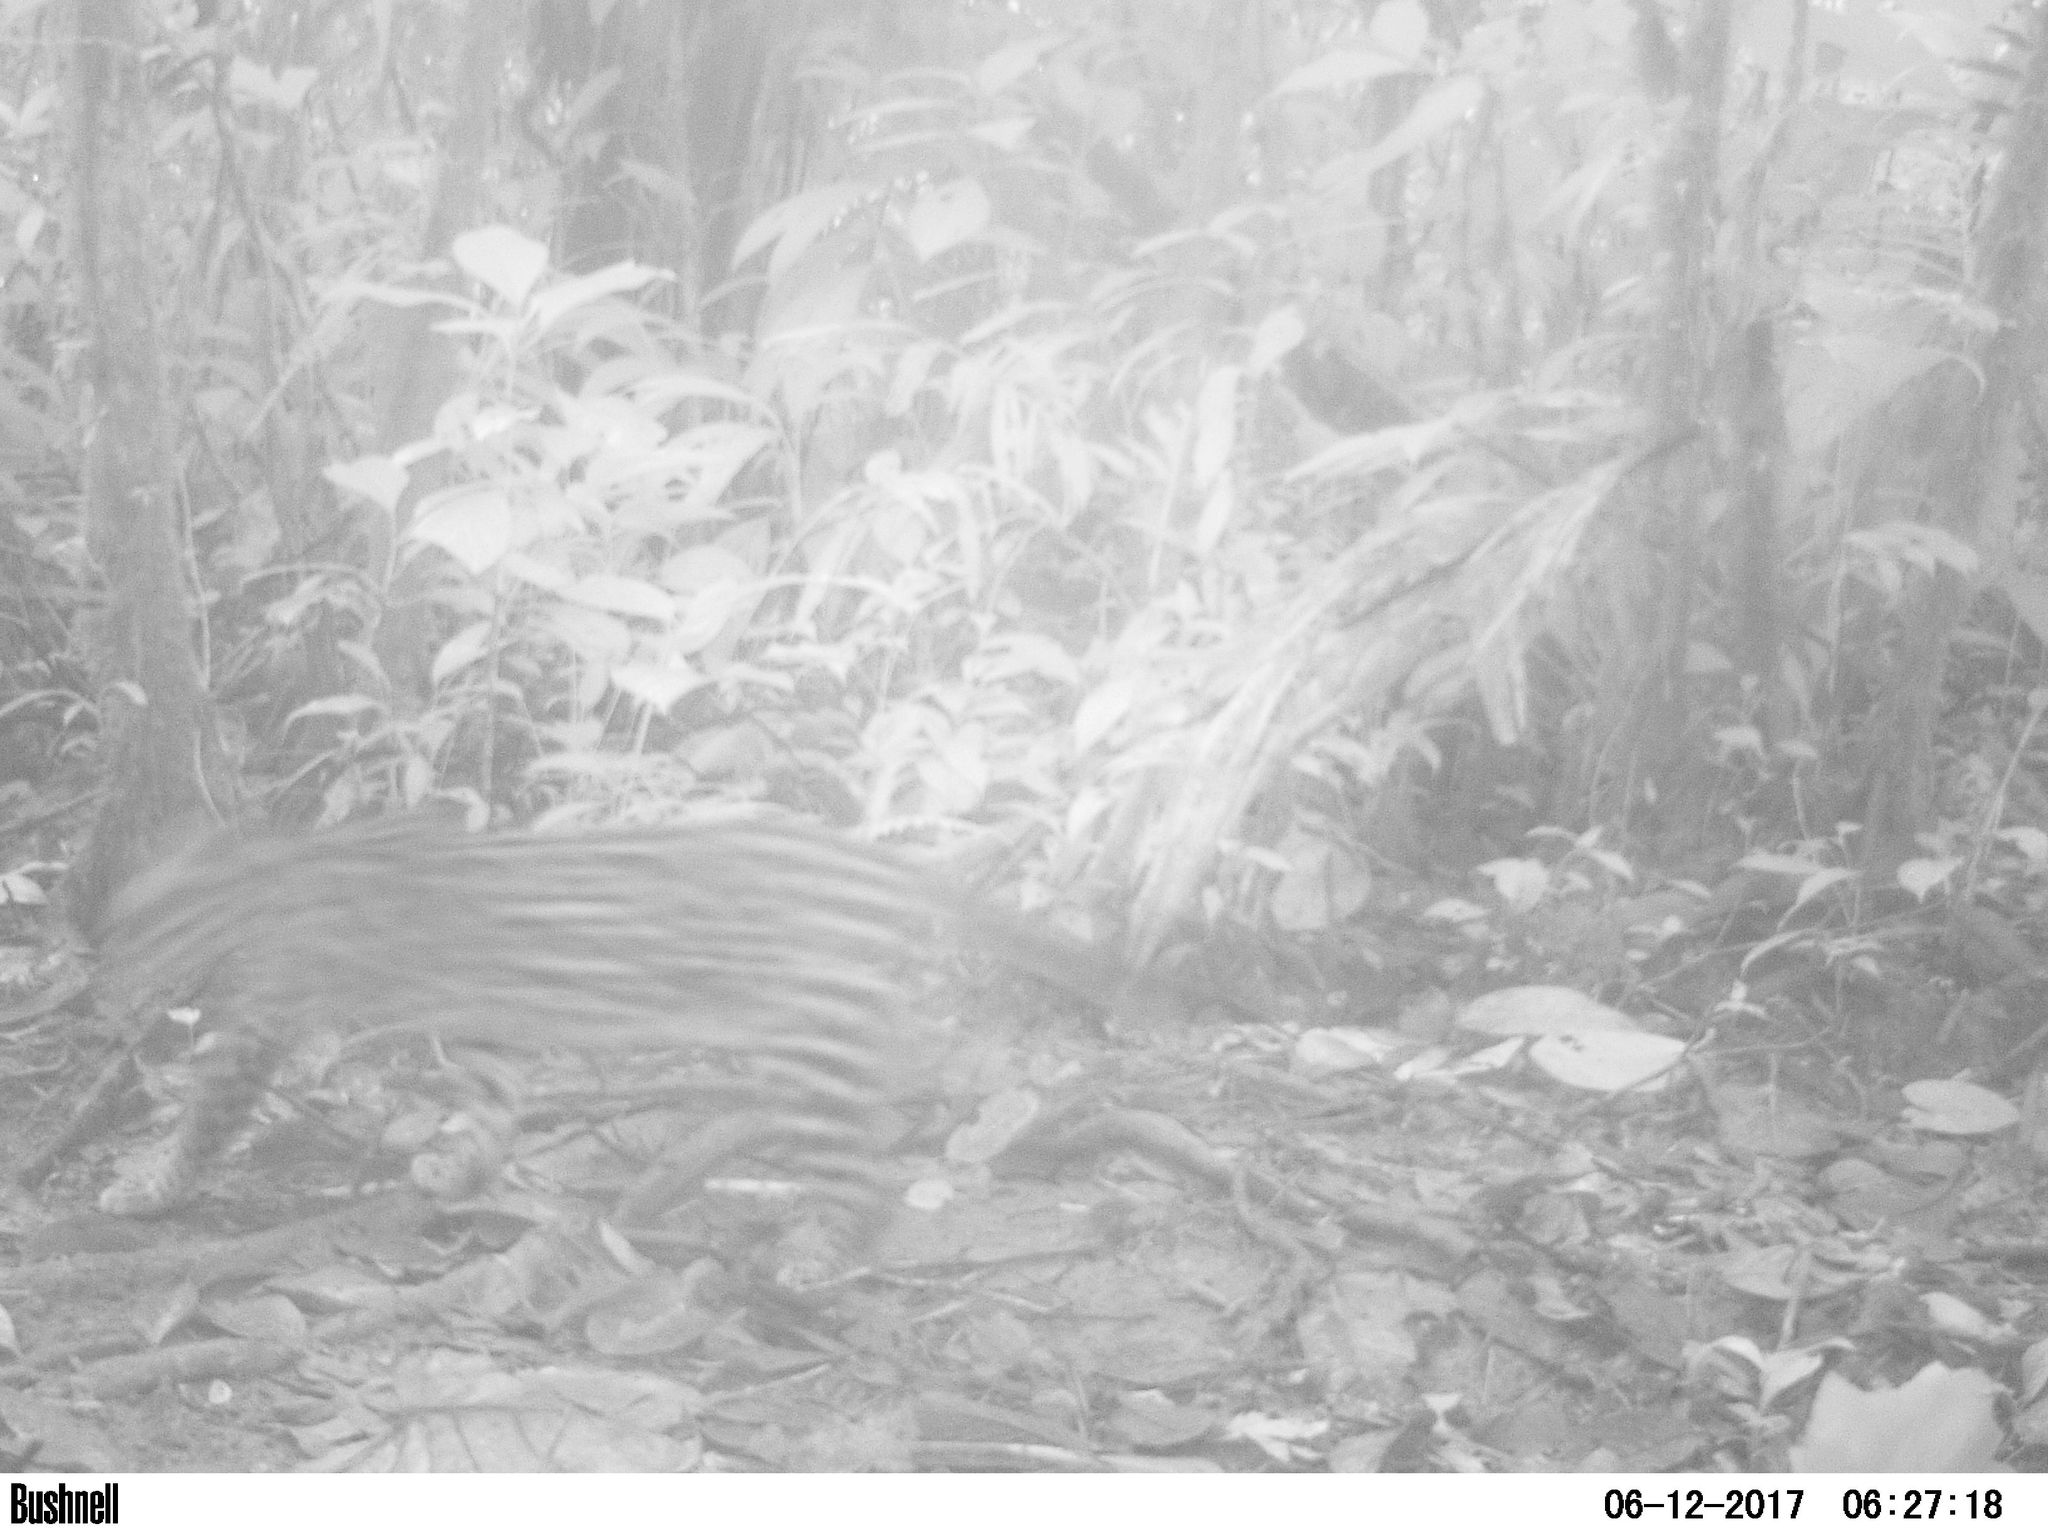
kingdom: Animalia
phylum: Chordata
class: Mammalia
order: Carnivora
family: Felidae
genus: Leopardus
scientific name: Leopardus pardalis
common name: Ocelot
